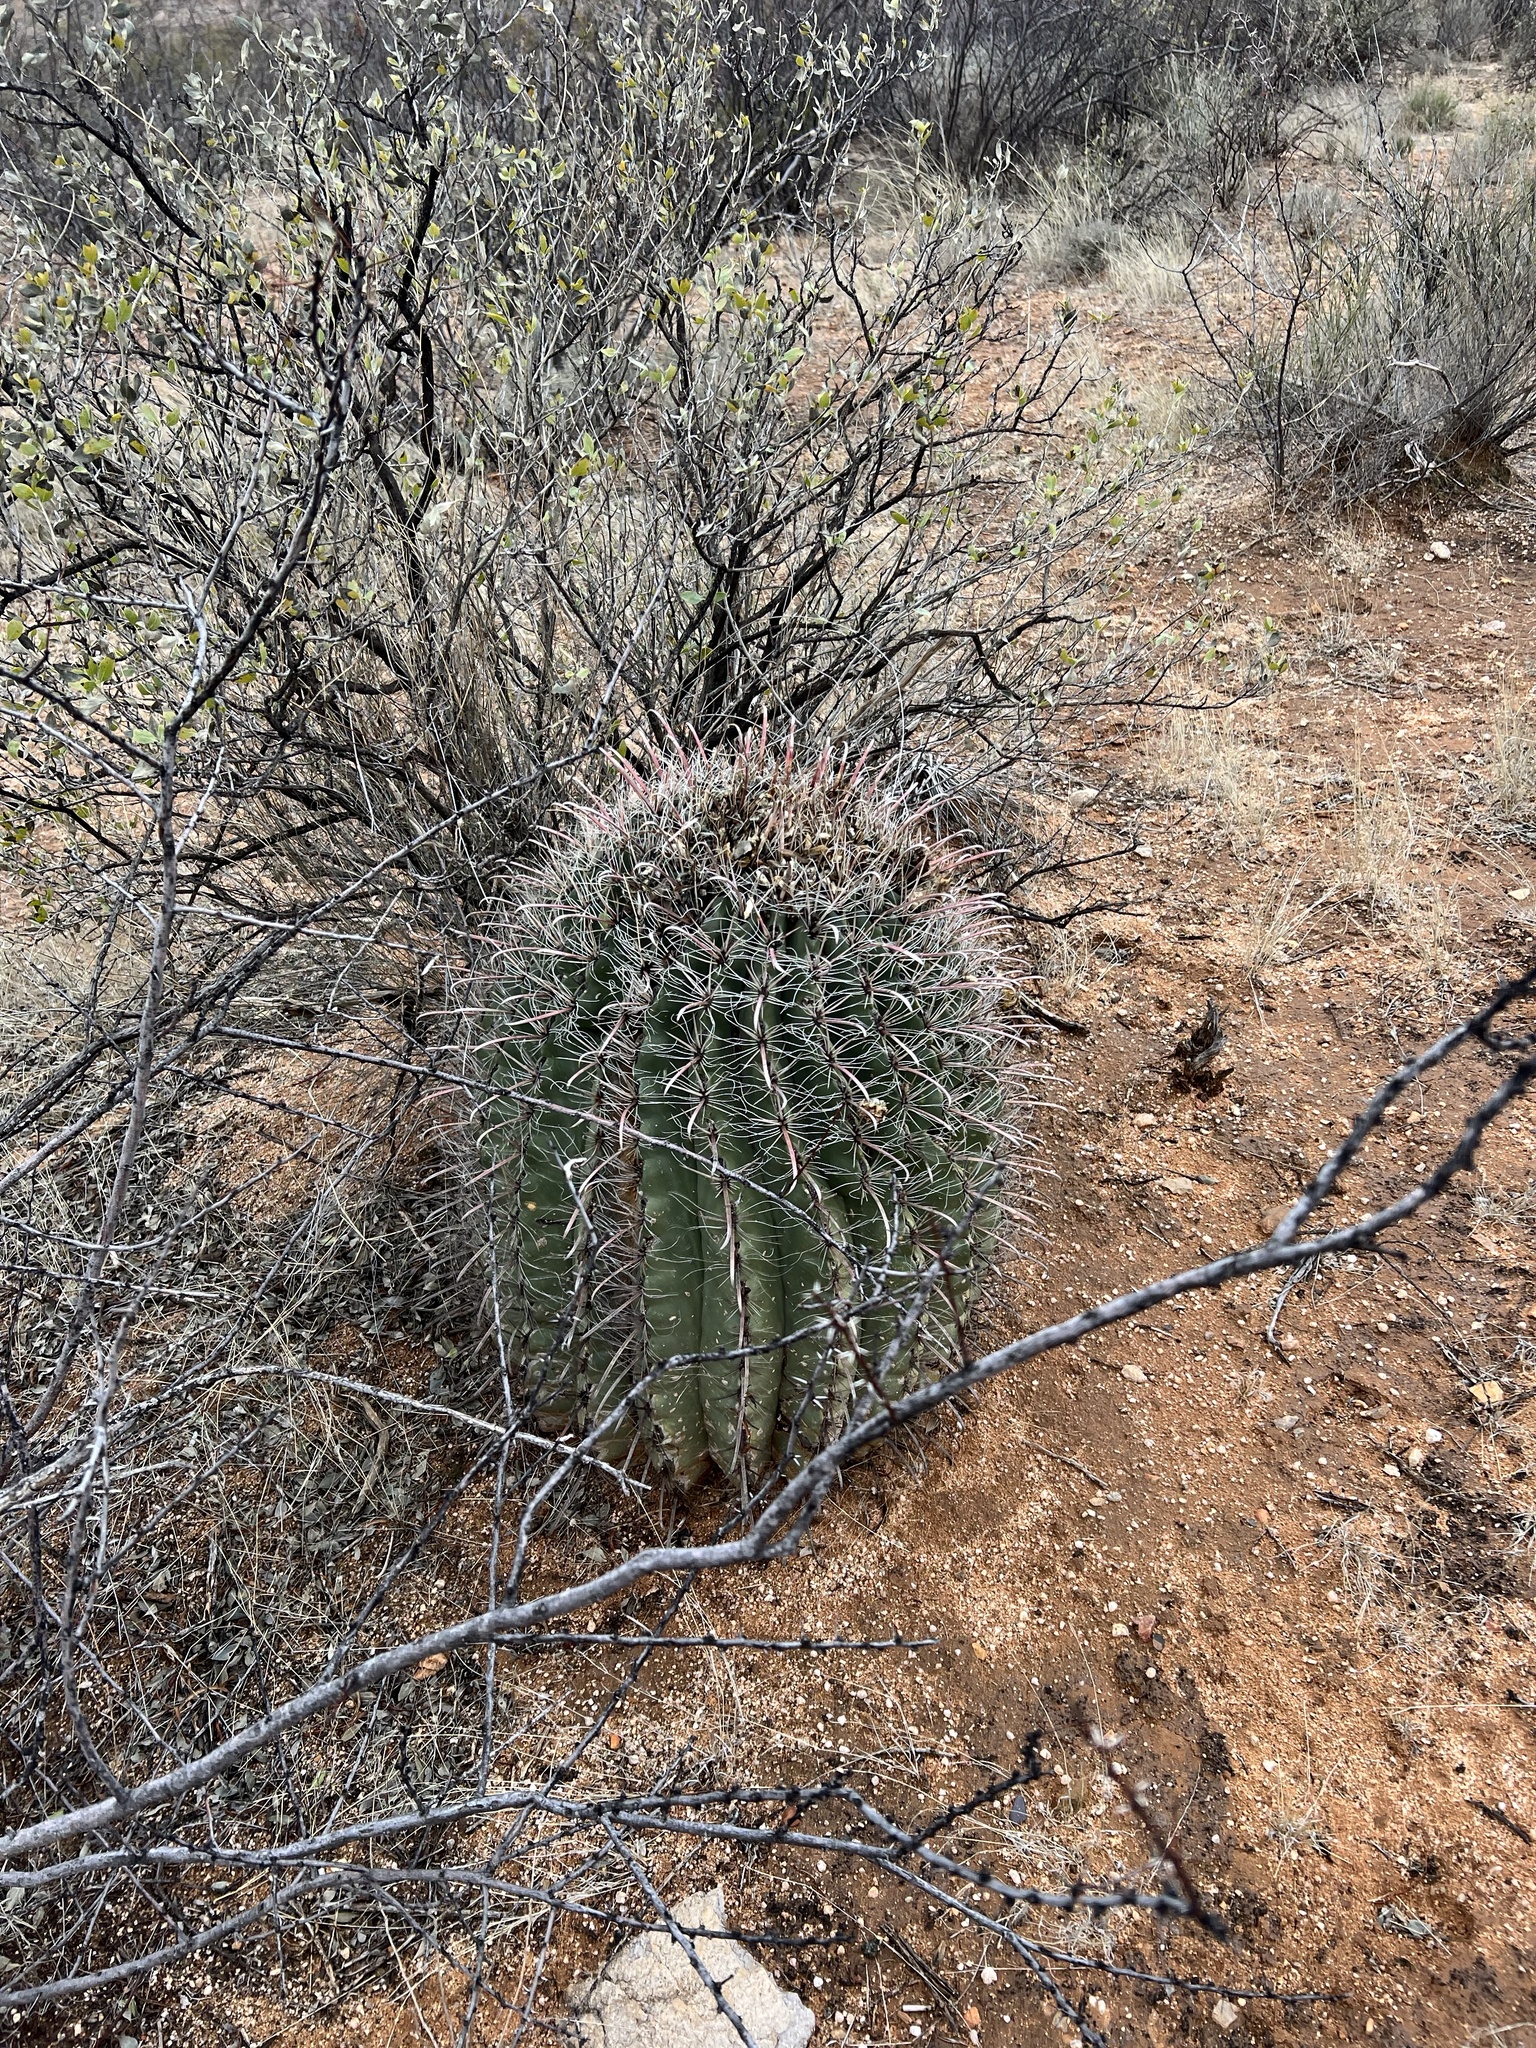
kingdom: Plantae
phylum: Tracheophyta
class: Magnoliopsida
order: Caryophyllales
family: Cactaceae
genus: Ferocactus
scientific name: Ferocactus wislizeni
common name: Candy barrel cactus
